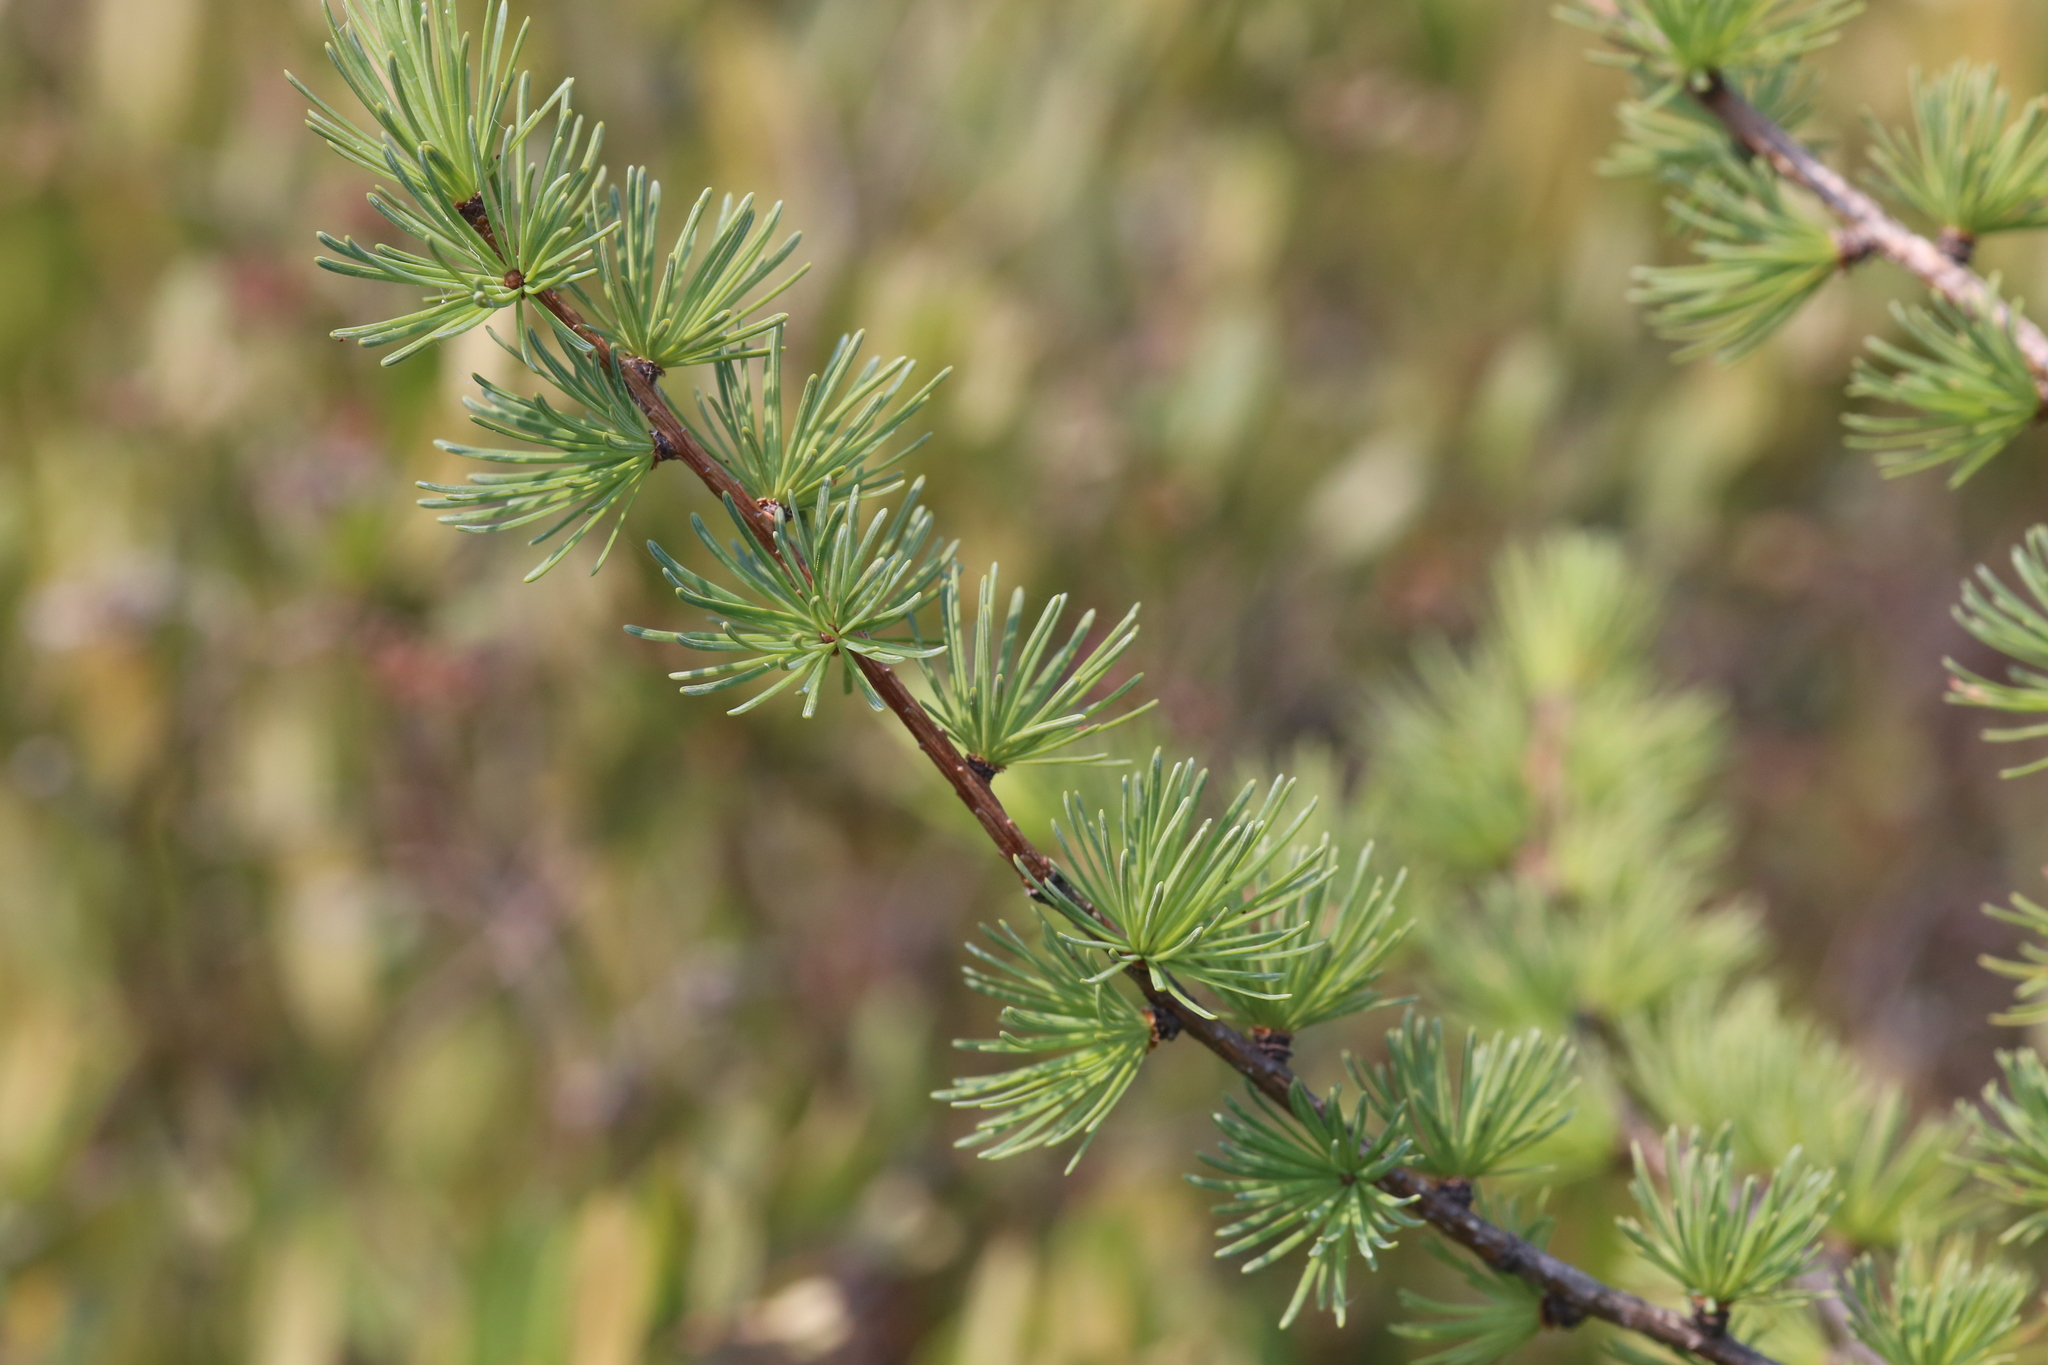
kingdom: Plantae
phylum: Tracheophyta
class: Pinopsida
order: Pinales
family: Pinaceae
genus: Larix
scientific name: Larix laricina
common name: American larch
